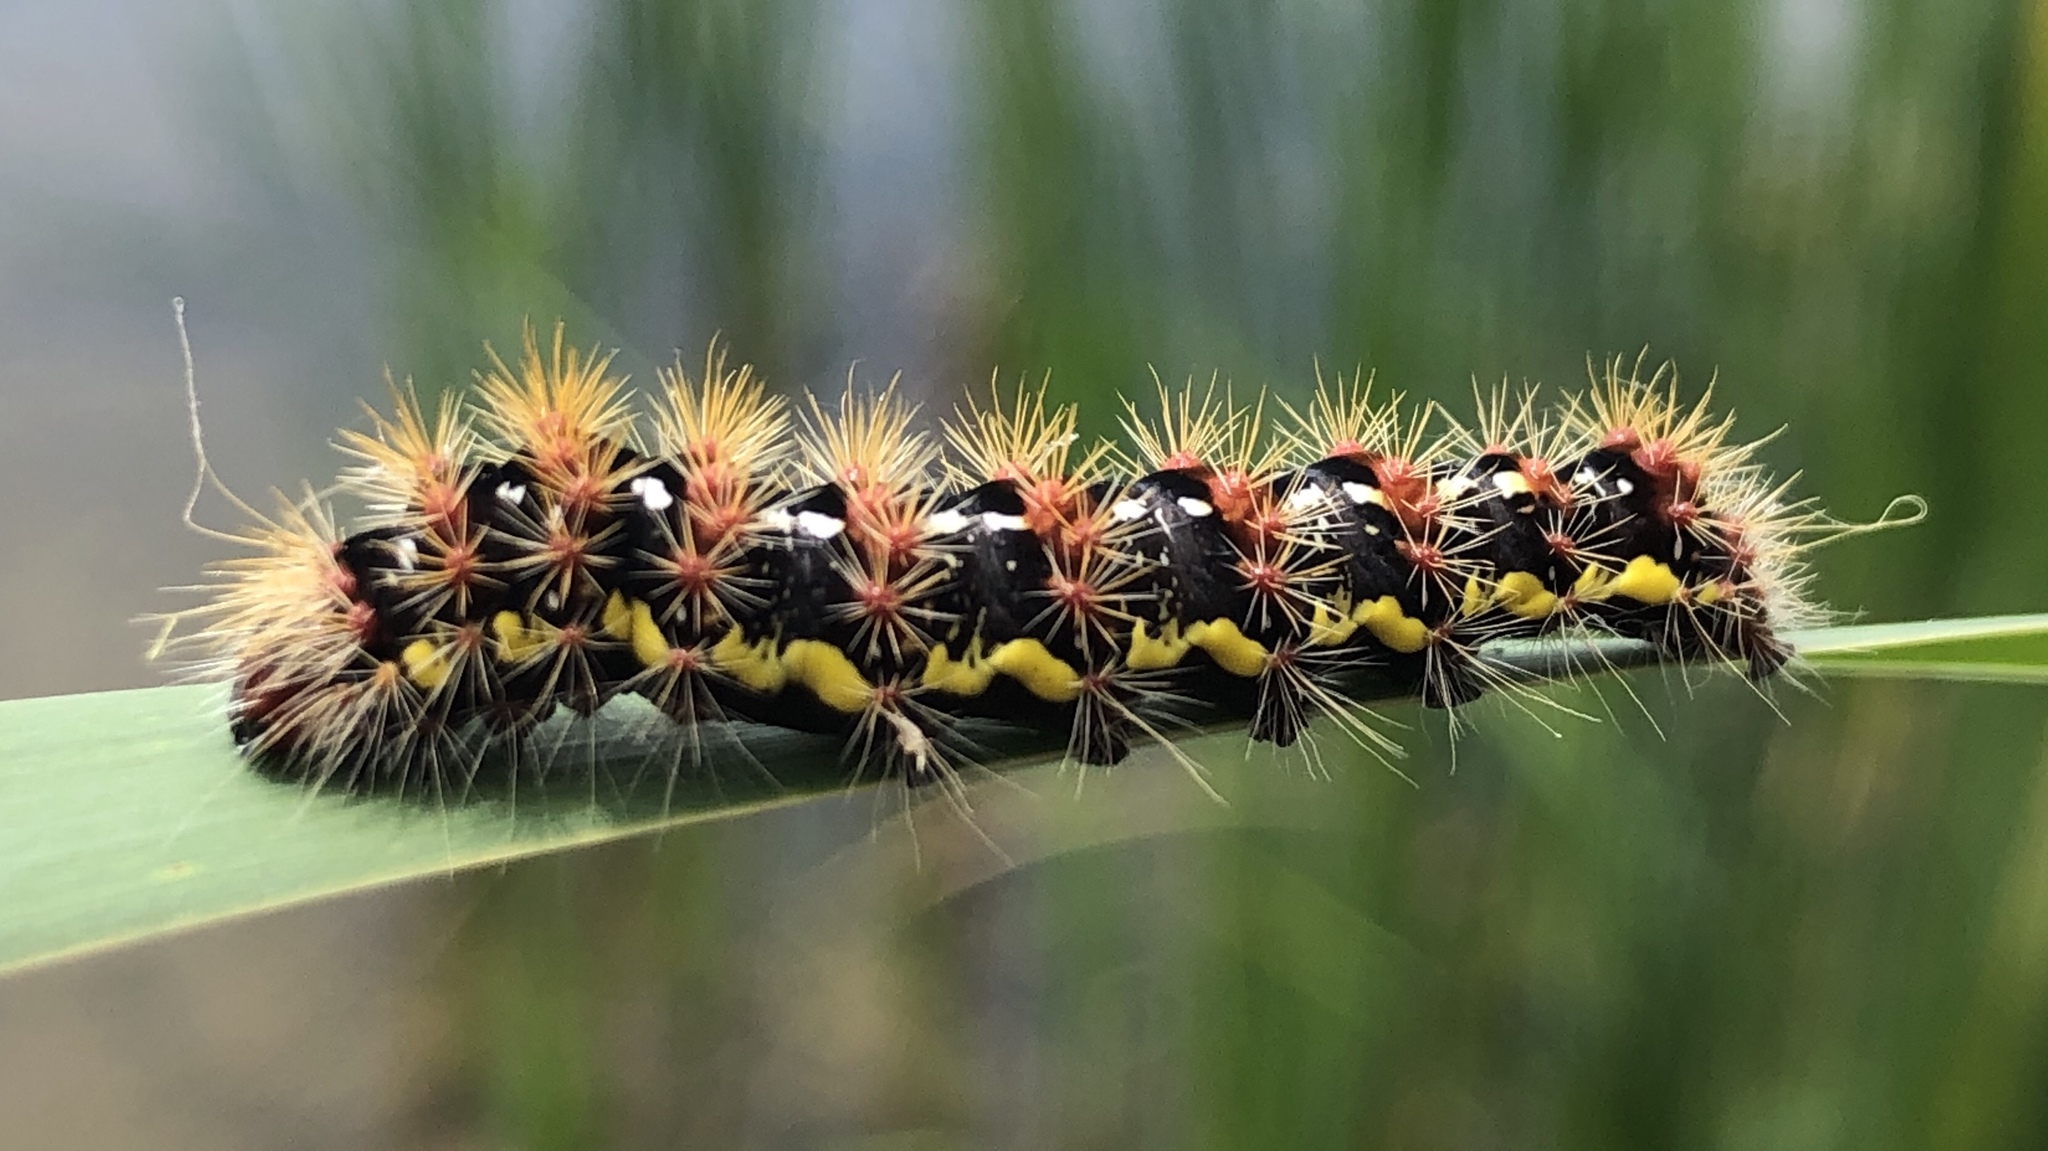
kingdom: Animalia
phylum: Arthropoda
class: Insecta
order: Lepidoptera
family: Noctuidae
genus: Acronicta
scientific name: Acronicta oblinita
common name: Smeared dagger
